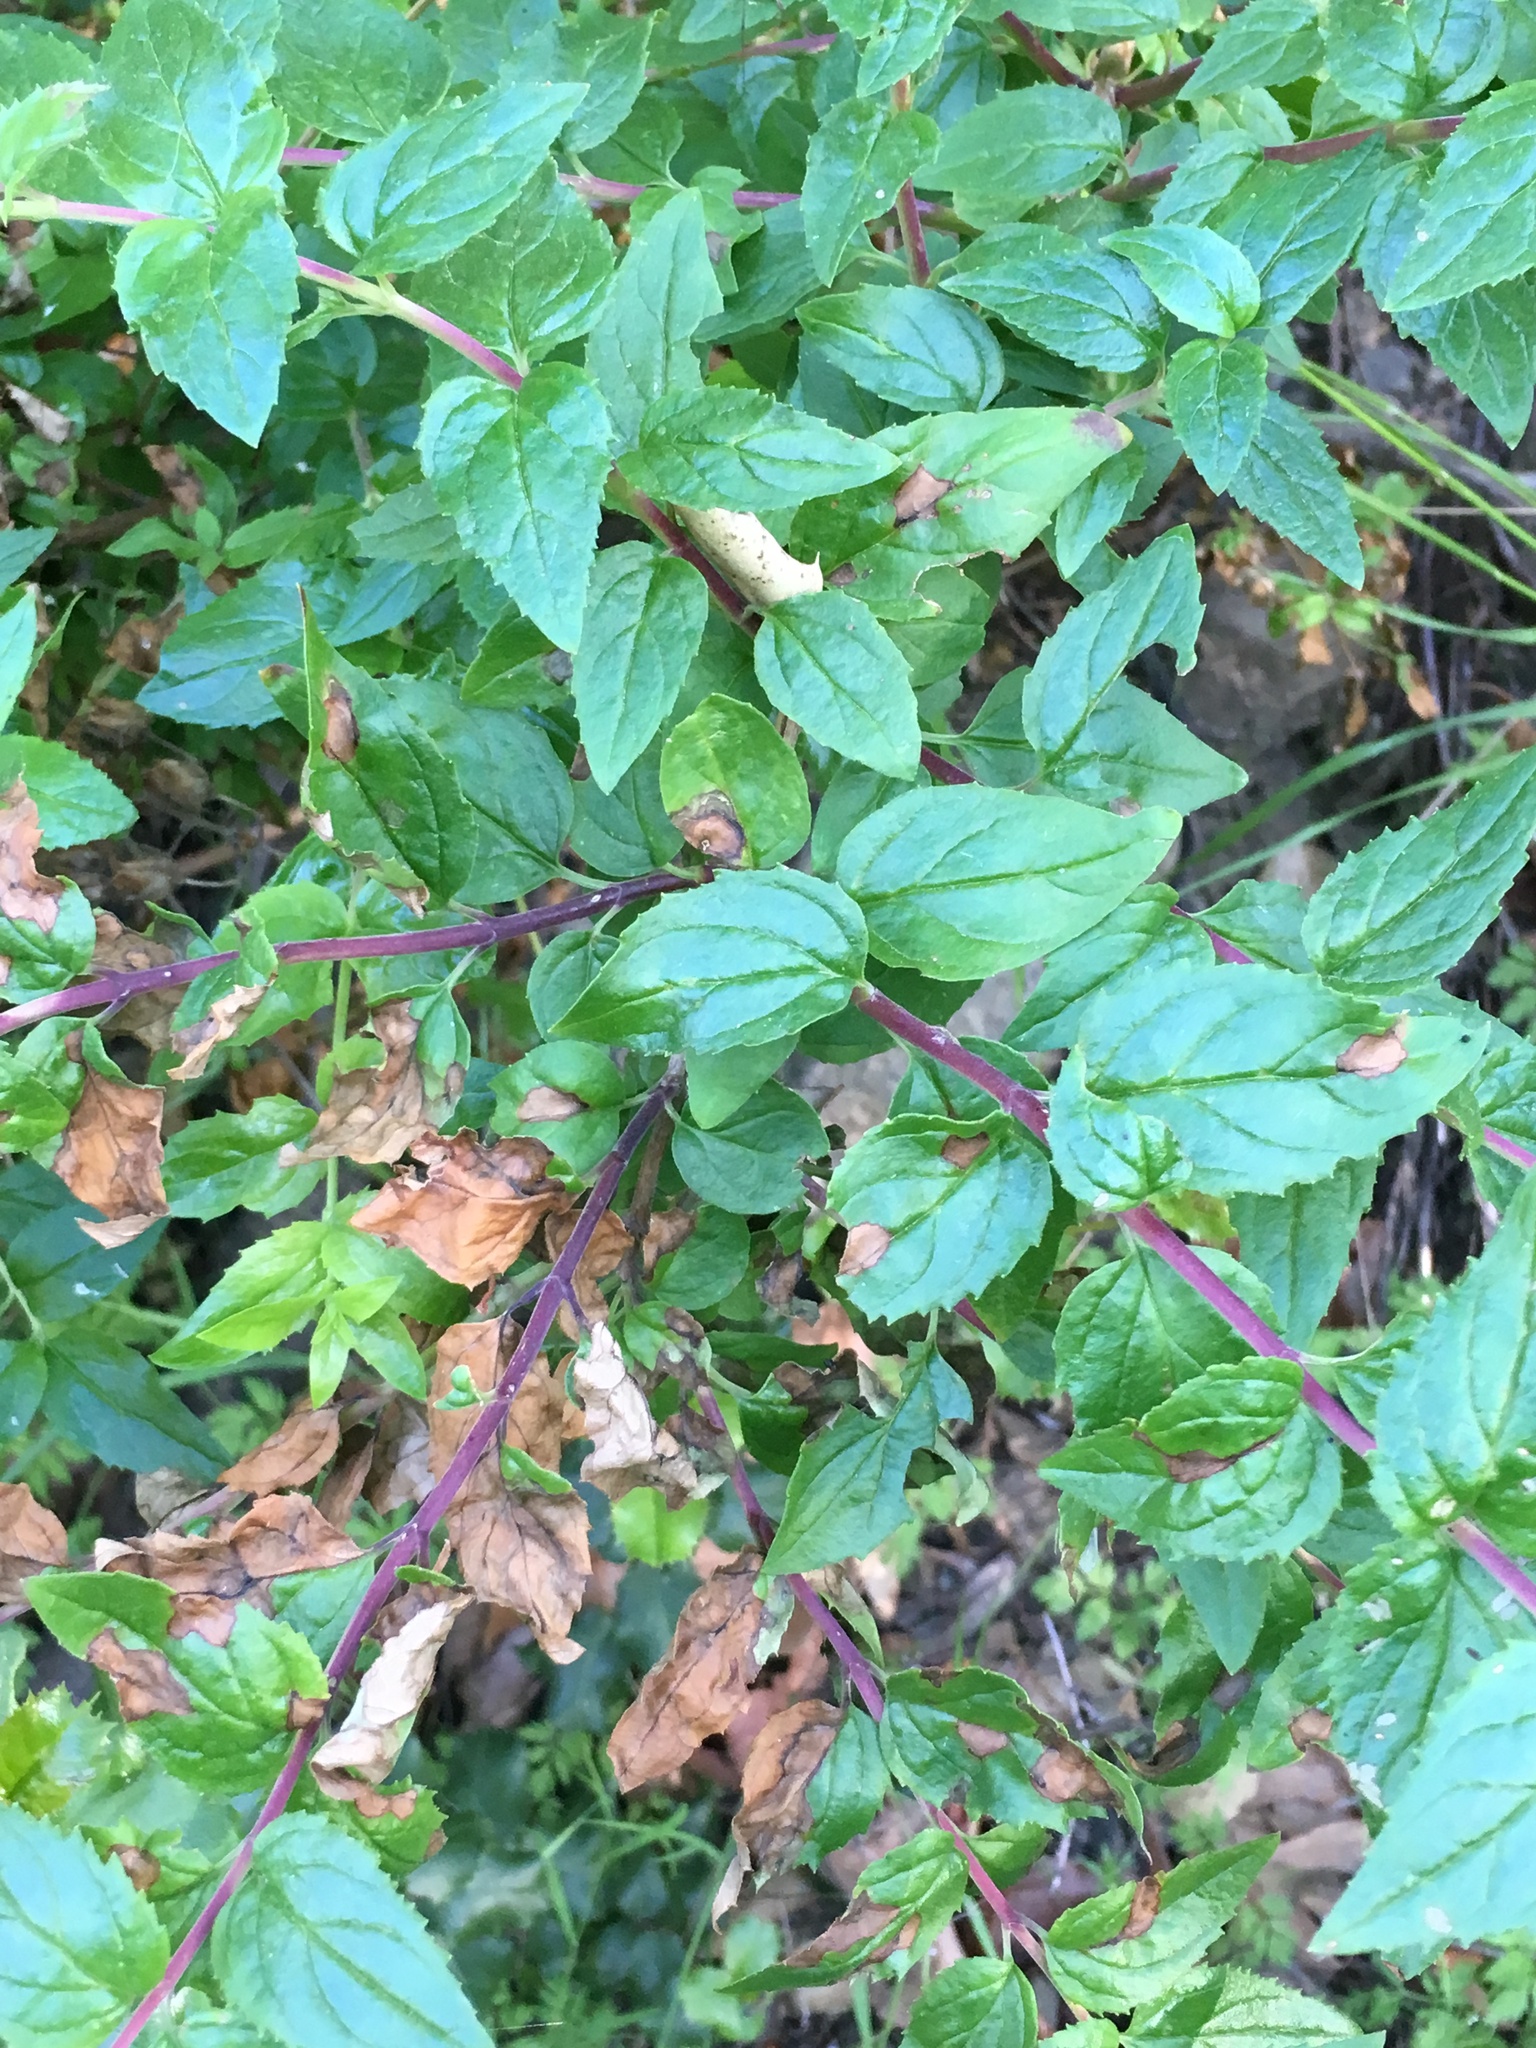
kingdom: Plantae
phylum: Tracheophyta
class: Magnoliopsida
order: Lamiales
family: Plantaginaceae
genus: Keckiella
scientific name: Keckiella cordifolia
